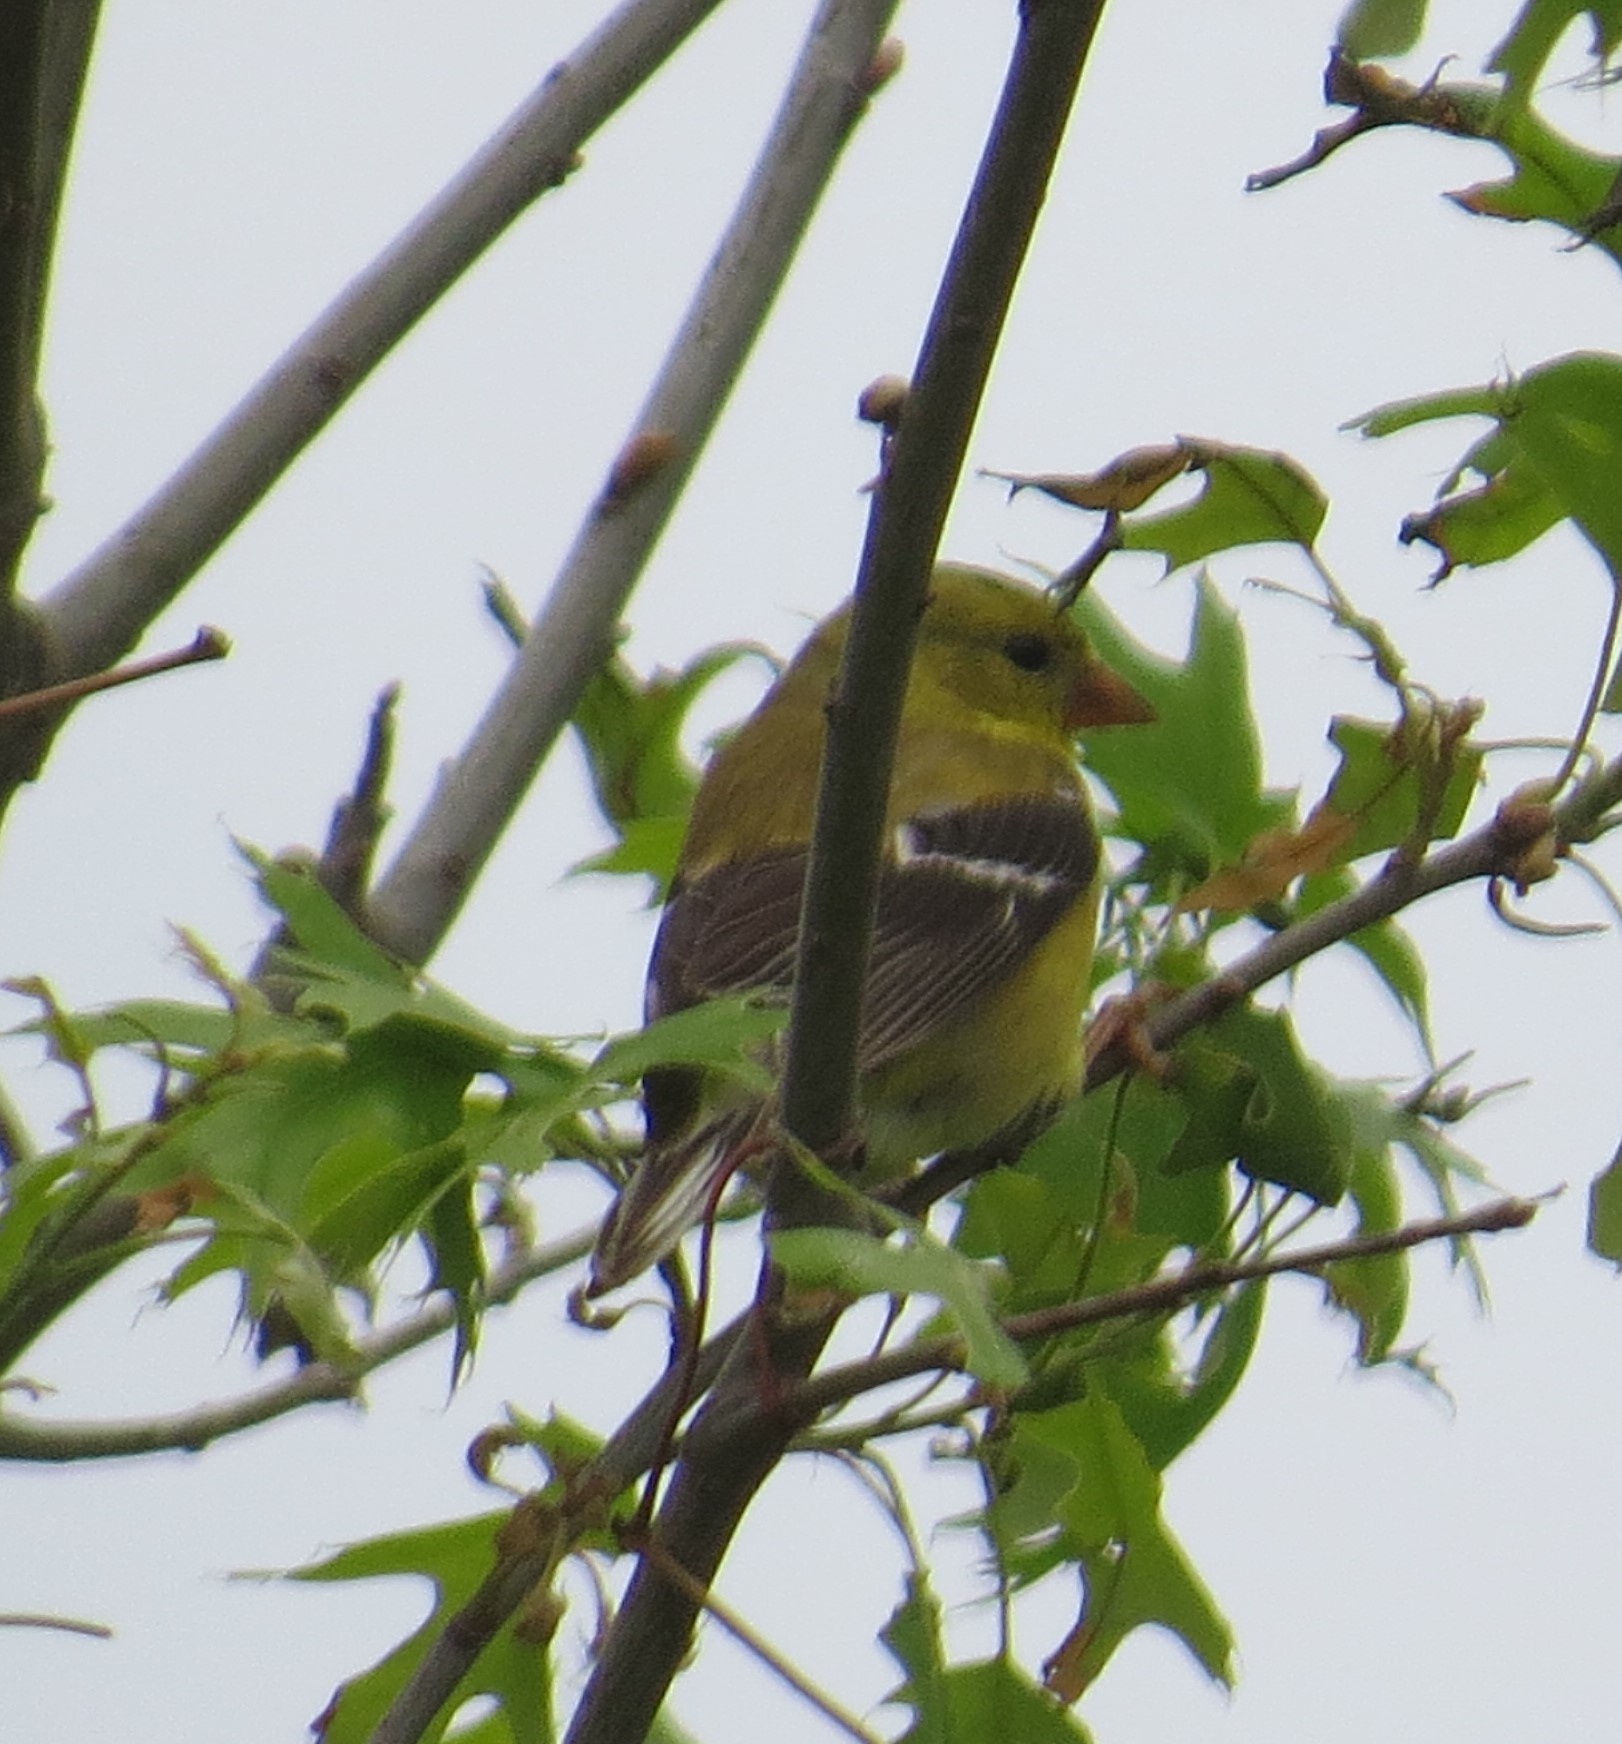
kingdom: Animalia
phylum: Chordata
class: Aves
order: Passeriformes
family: Fringillidae
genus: Spinus
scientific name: Spinus tristis
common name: American goldfinch
